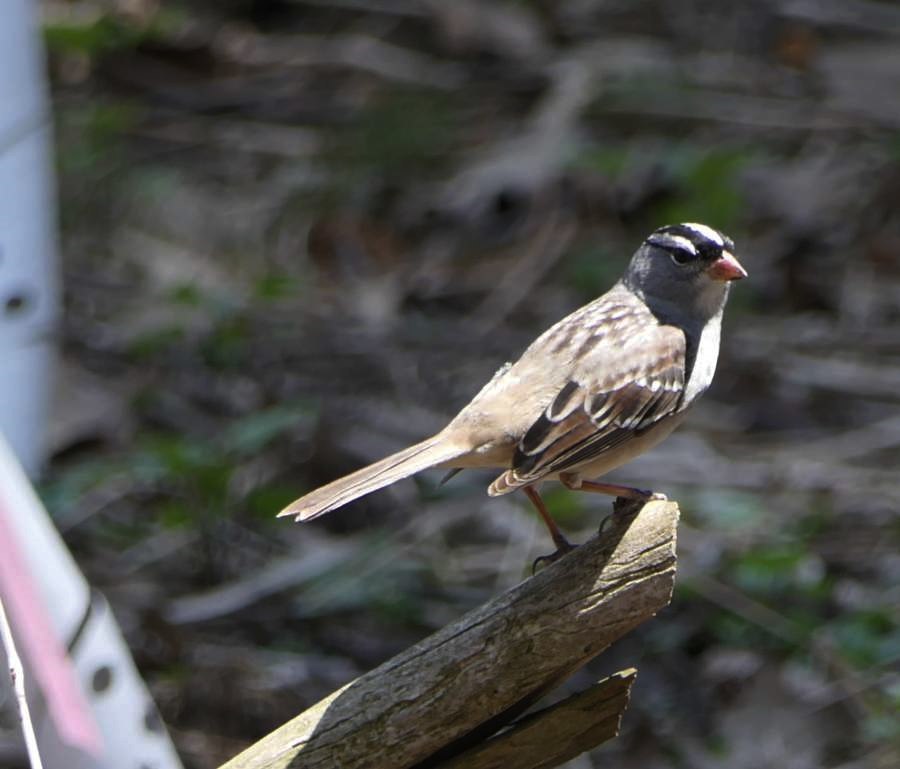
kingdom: Animalia
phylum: Chordata
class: Aves
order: Passeriformes
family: Passerellidae
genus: Zonotrichia
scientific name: Zonotrichia leucophrys
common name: White-crowned sparrow
